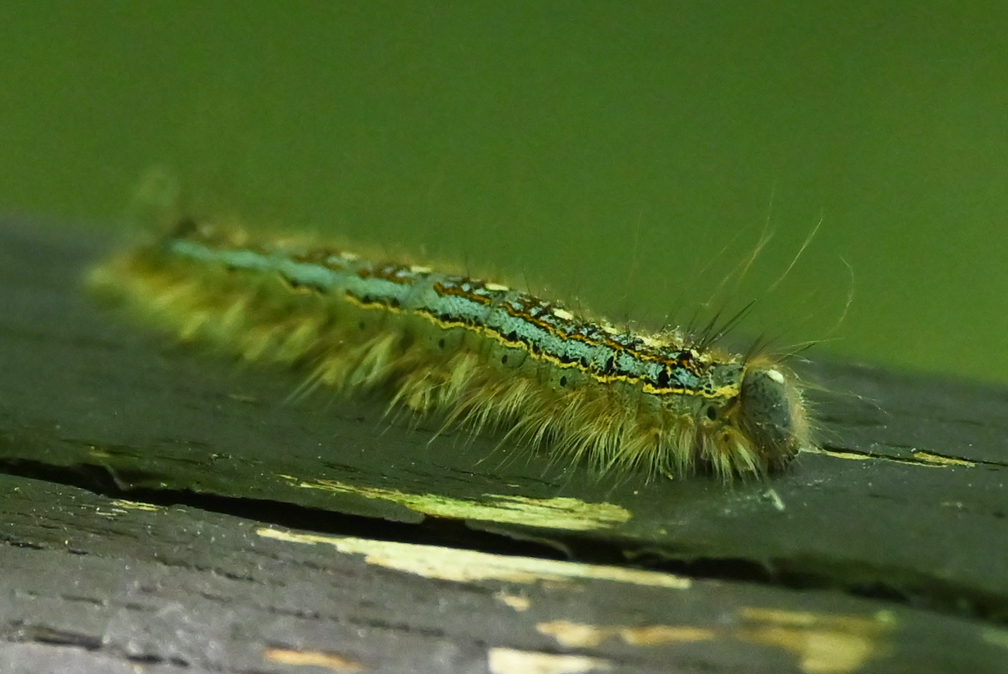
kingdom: Animalia
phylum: Arthropoda
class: Insecta
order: Lepidoptera
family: Lasiocampidae
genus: Malacosoma
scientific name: Malacosoma disstria
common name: Forest tent caterpillar
